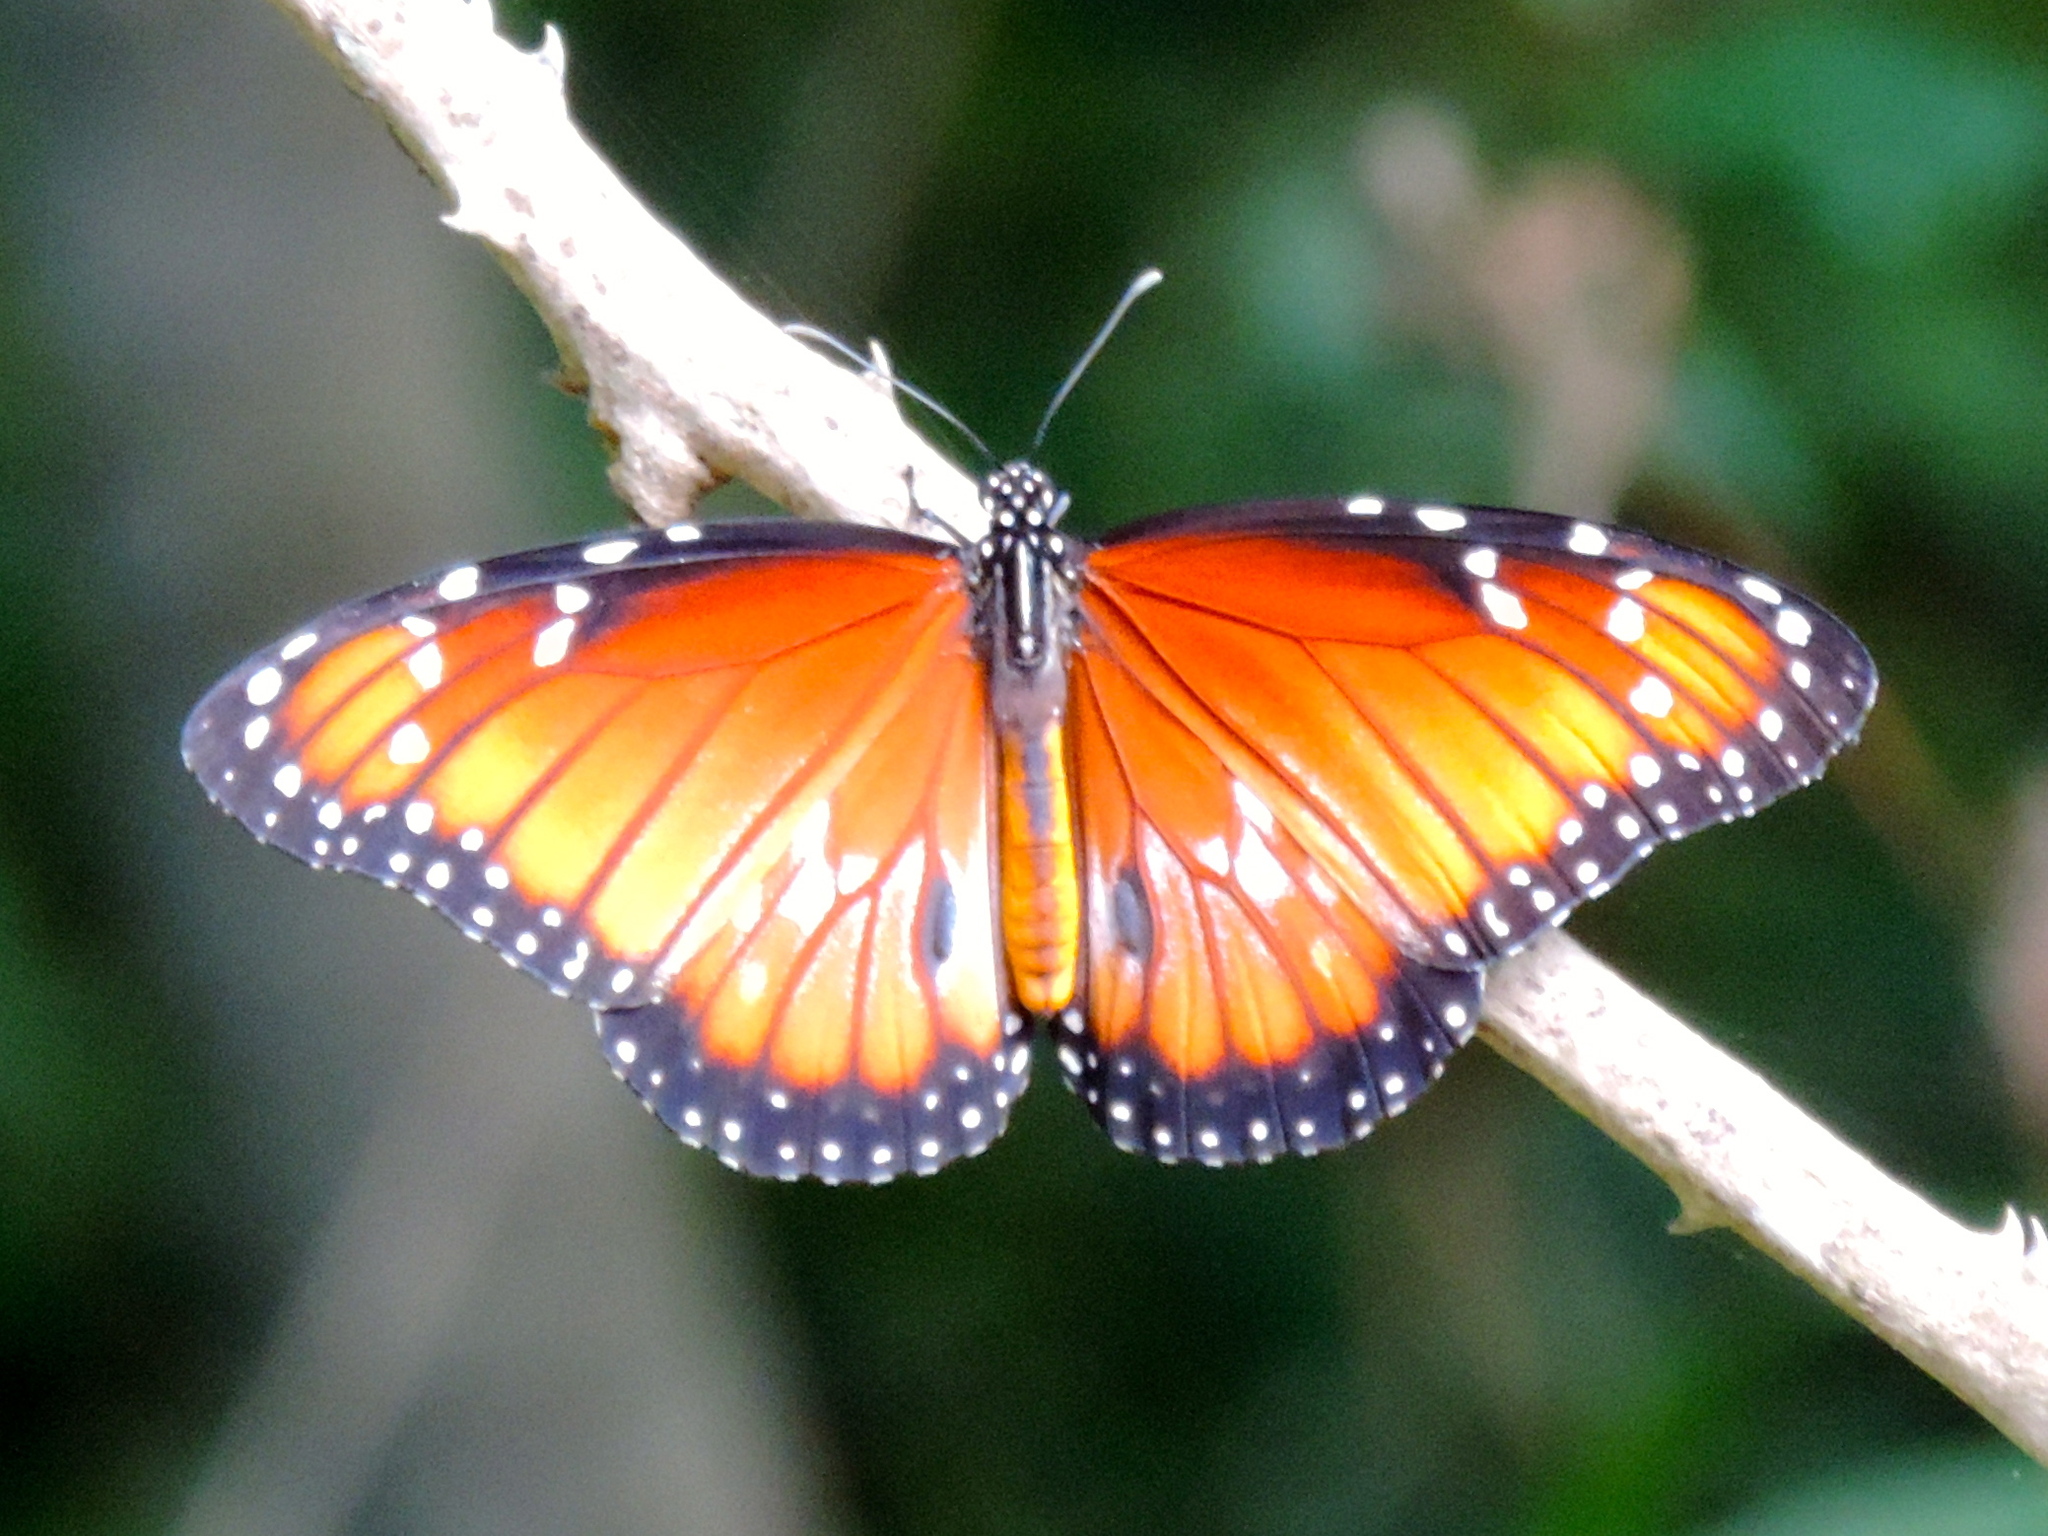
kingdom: Animalia
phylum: Arthropoda
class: Insecta
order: Lepidoptera
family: Nymphalidae
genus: Danaus
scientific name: Danaus eresimus
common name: Soldier
